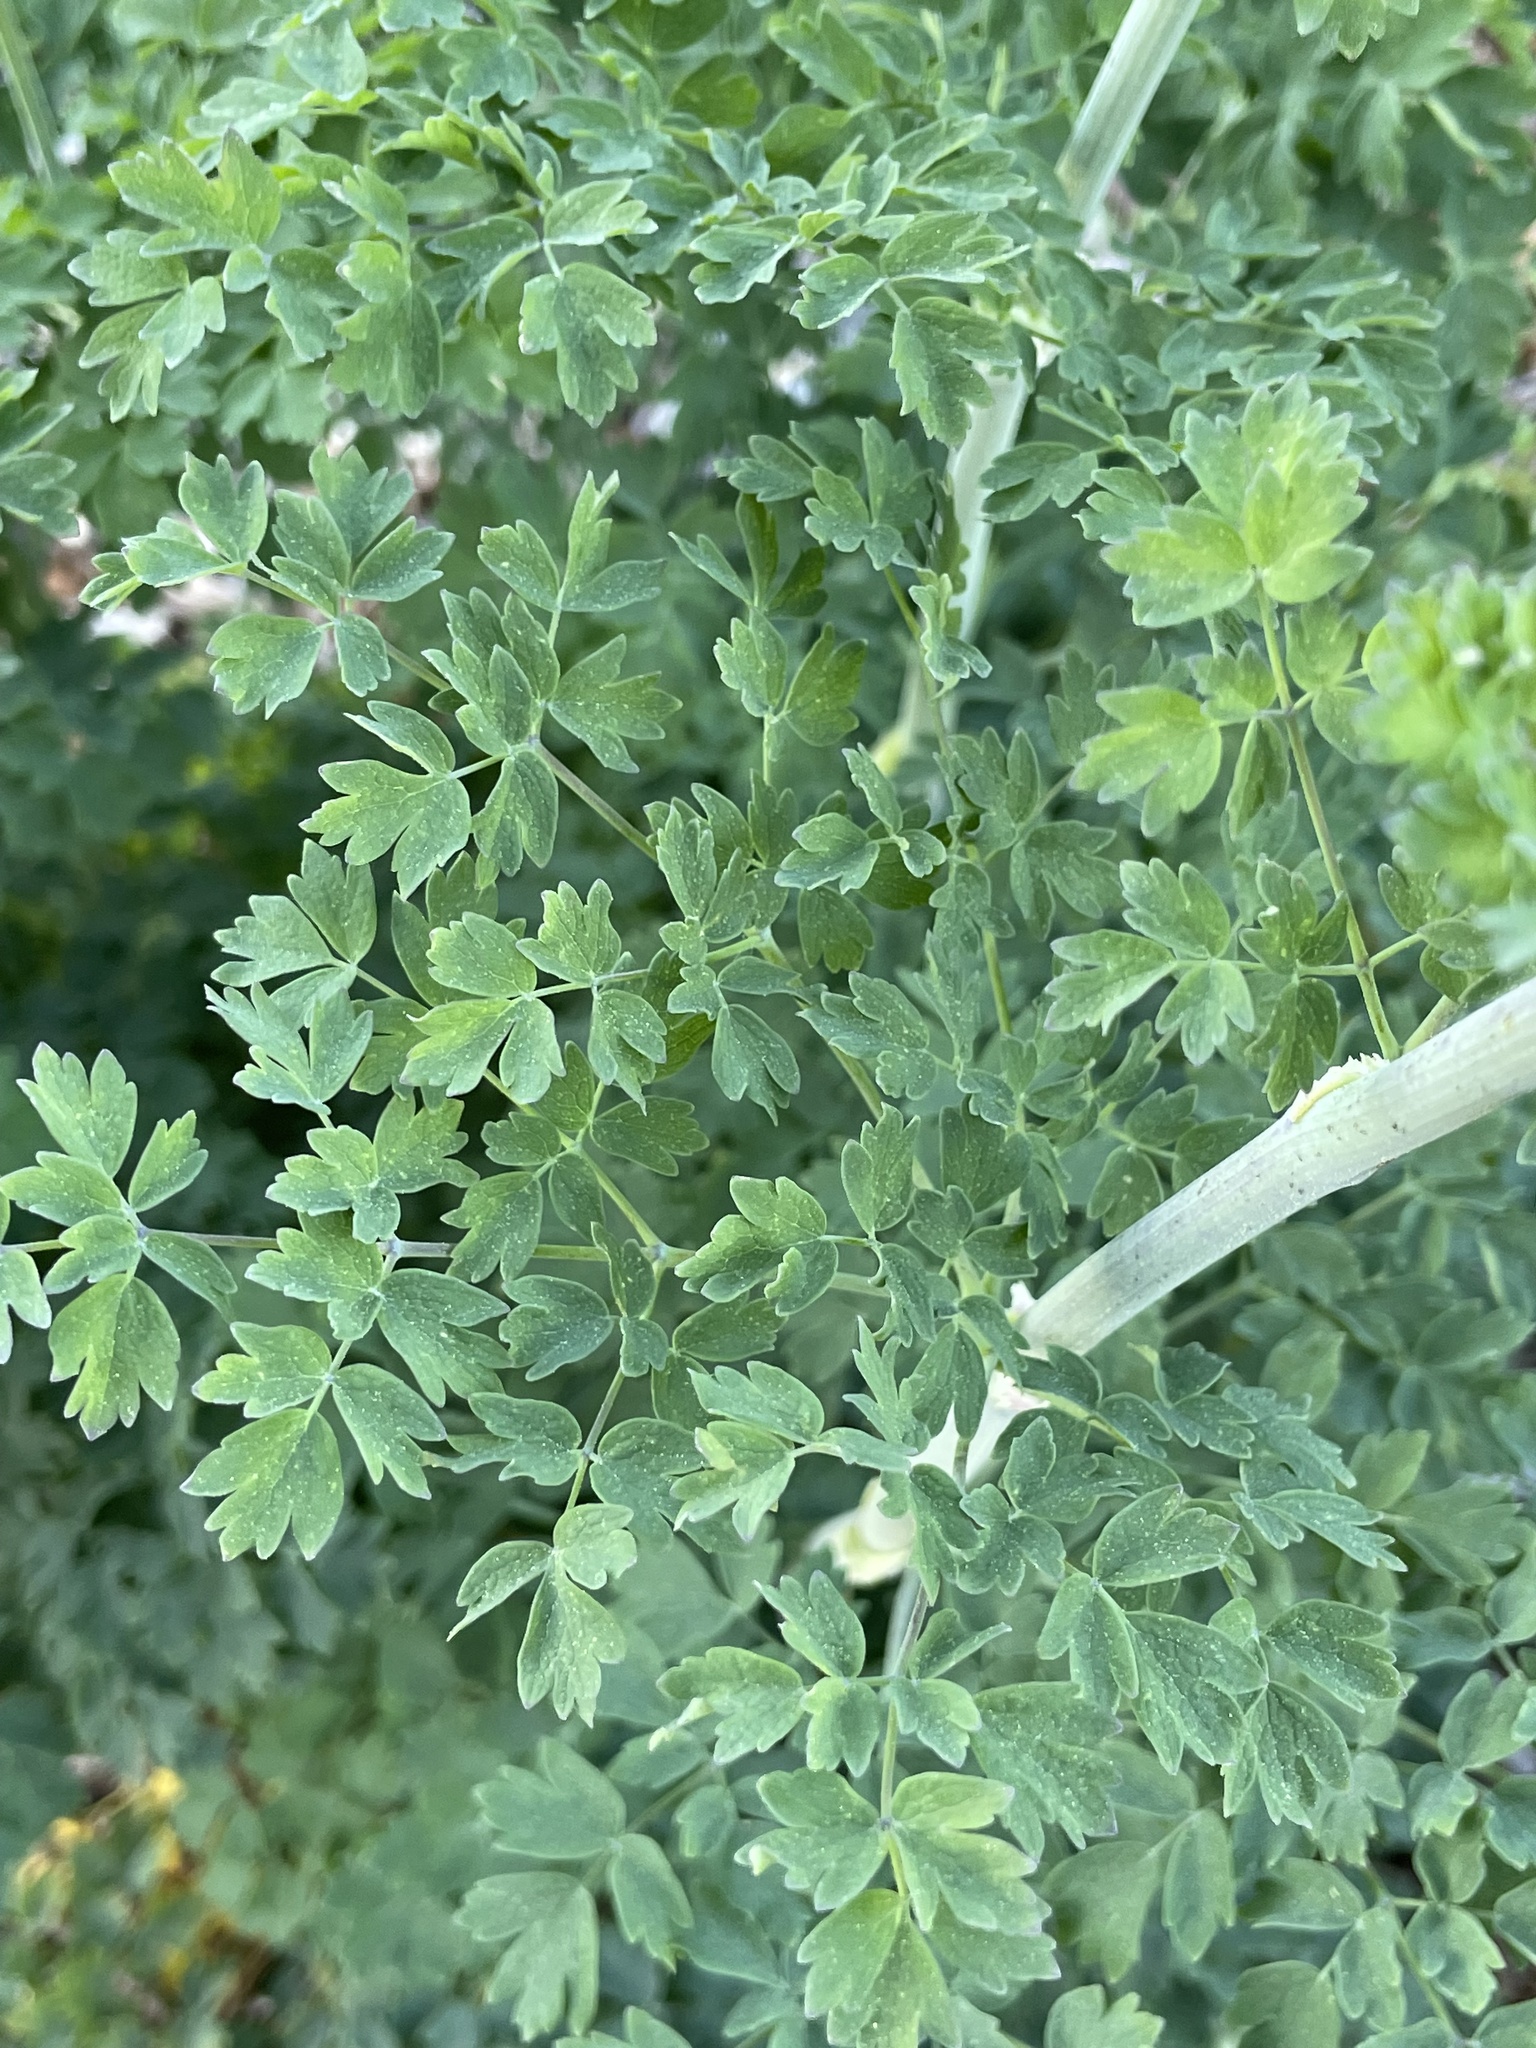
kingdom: Plantae
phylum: Tracheophyta
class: Magnoliopsida
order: Ranunculales
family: Ranunculaceae
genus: Thalictrum
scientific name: Thalictrum fendleri
